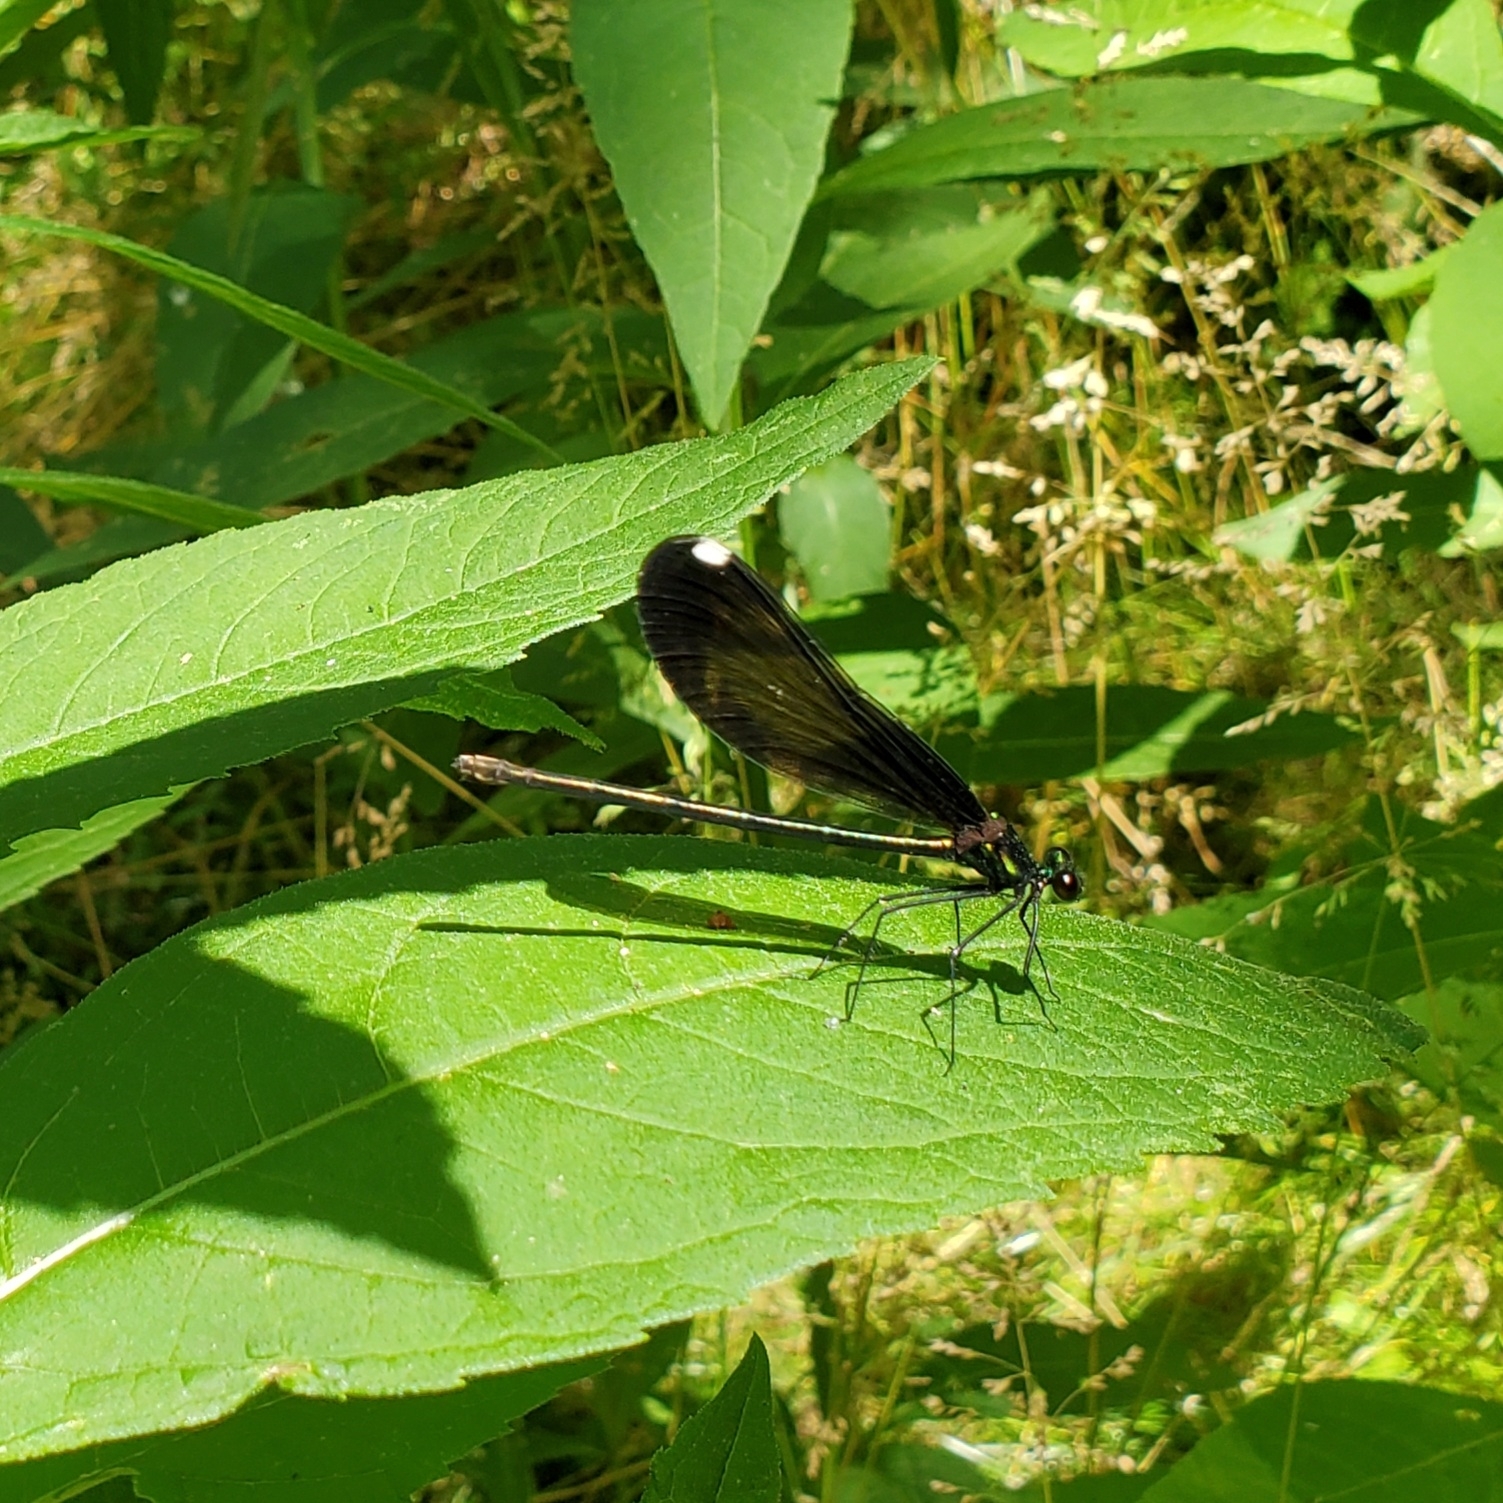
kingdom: Animalia
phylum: Arthropoda
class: Insecta
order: Odonata
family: Calopterygidae
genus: Calopteryx
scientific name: Calopteryx maculata
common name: Ebony jewelwing
